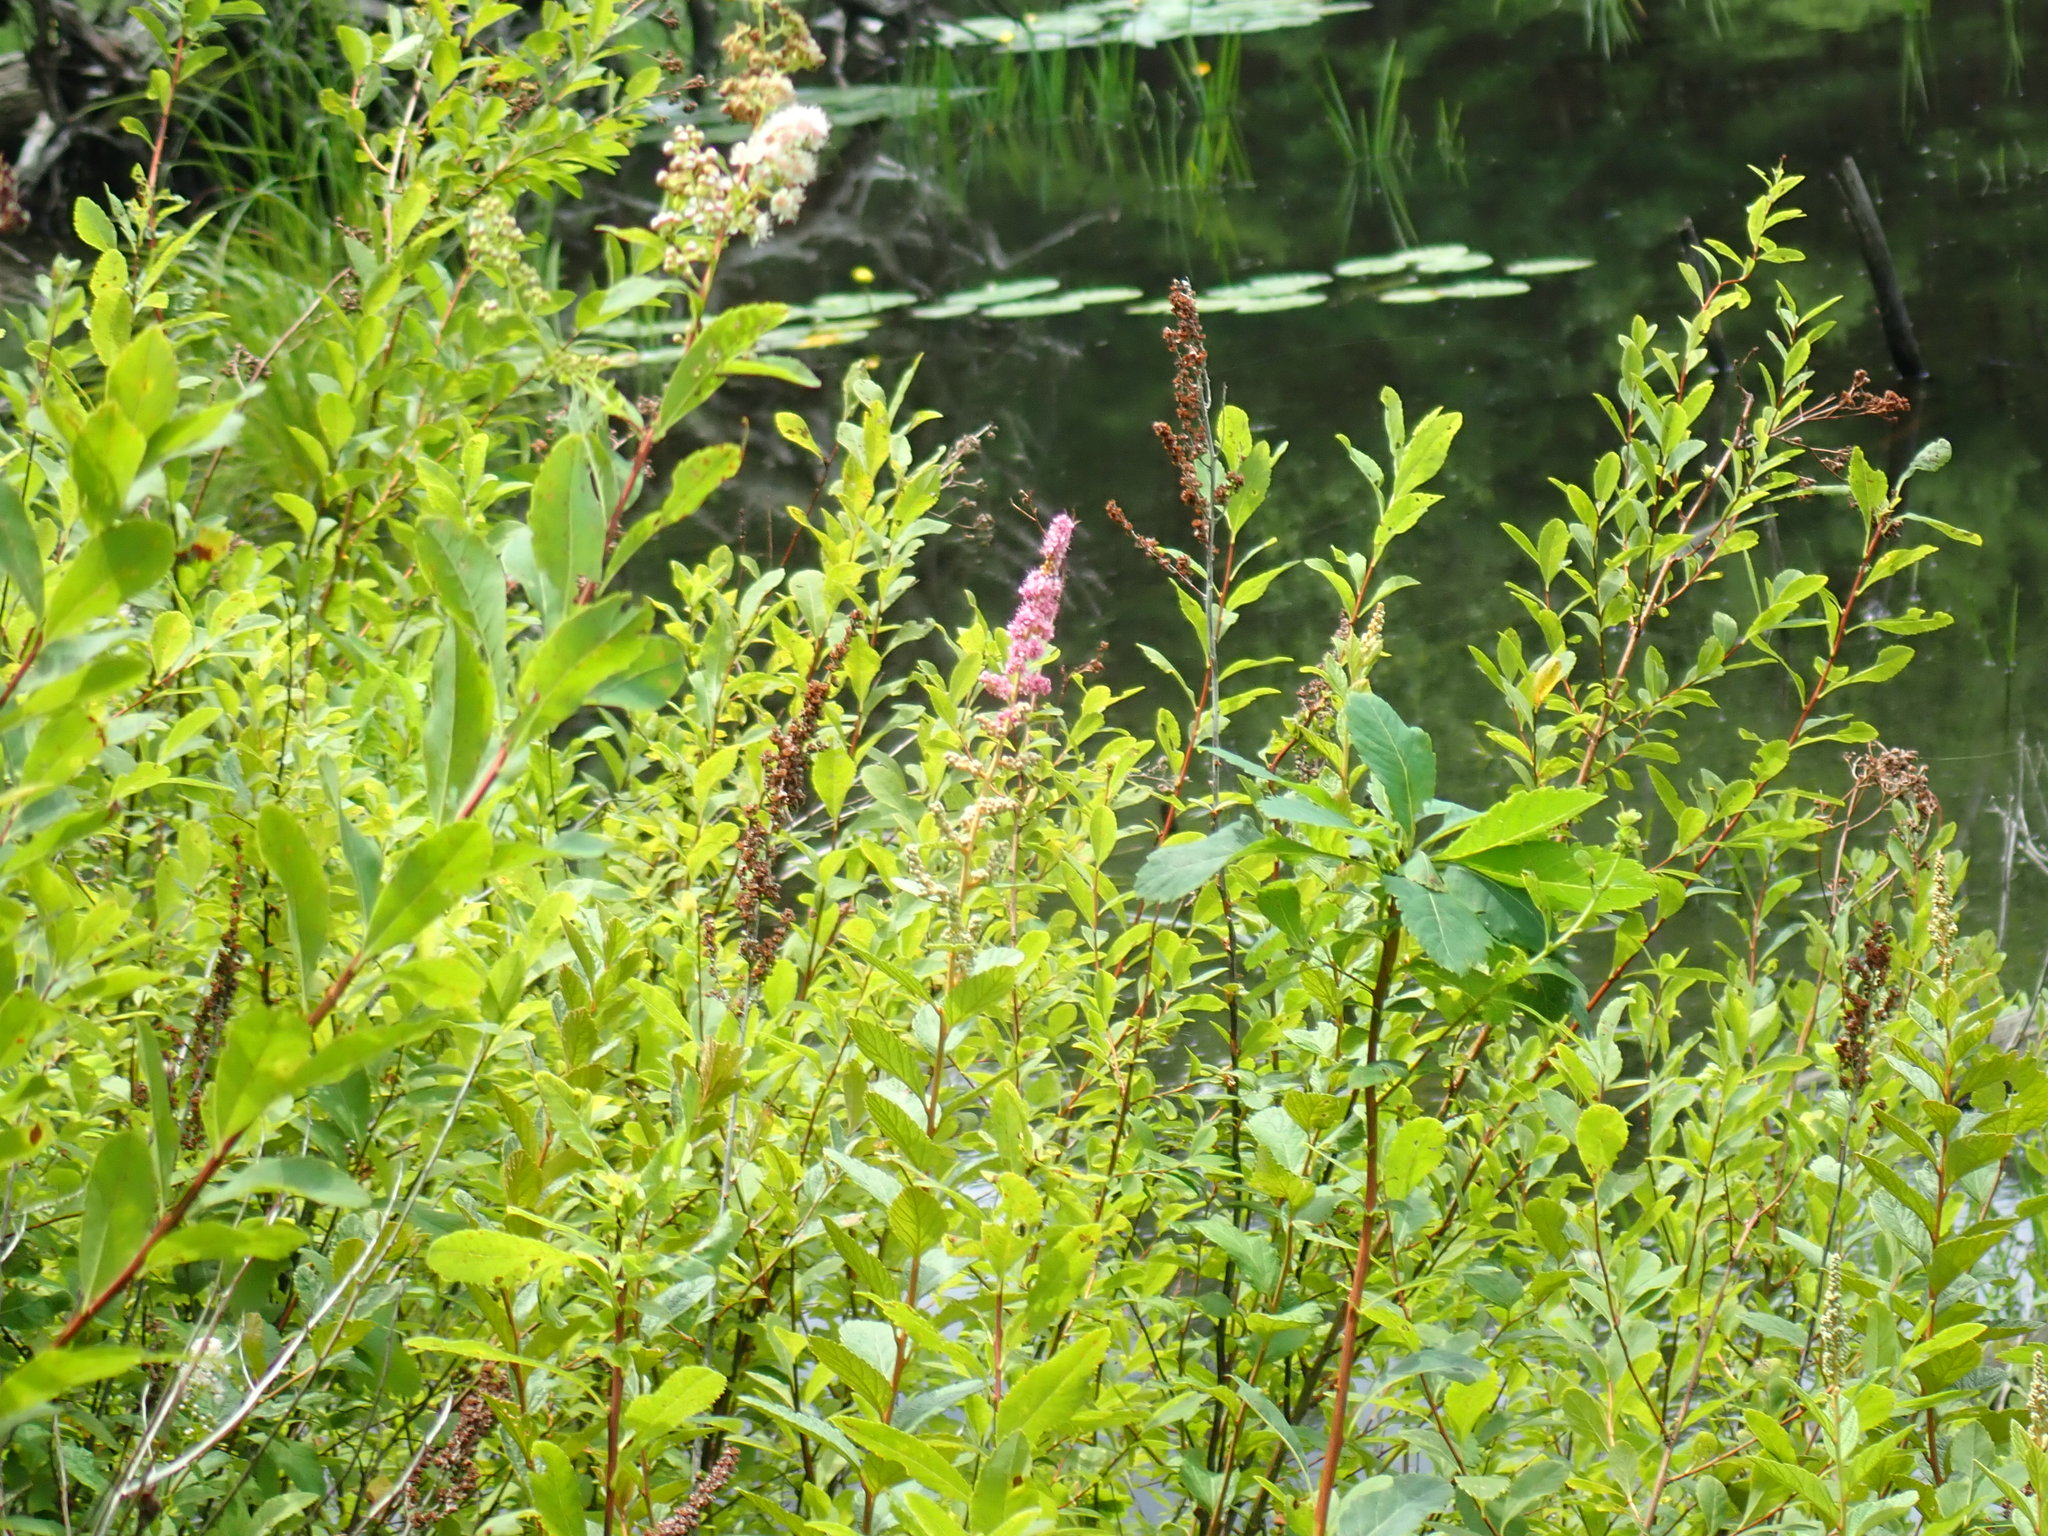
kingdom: Plantae
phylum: Tracheophyta
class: Magnoliopsida
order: Rosales
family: Rosaceae
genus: Spiraea
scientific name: Spiraea tomentosa
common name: Hardhack
